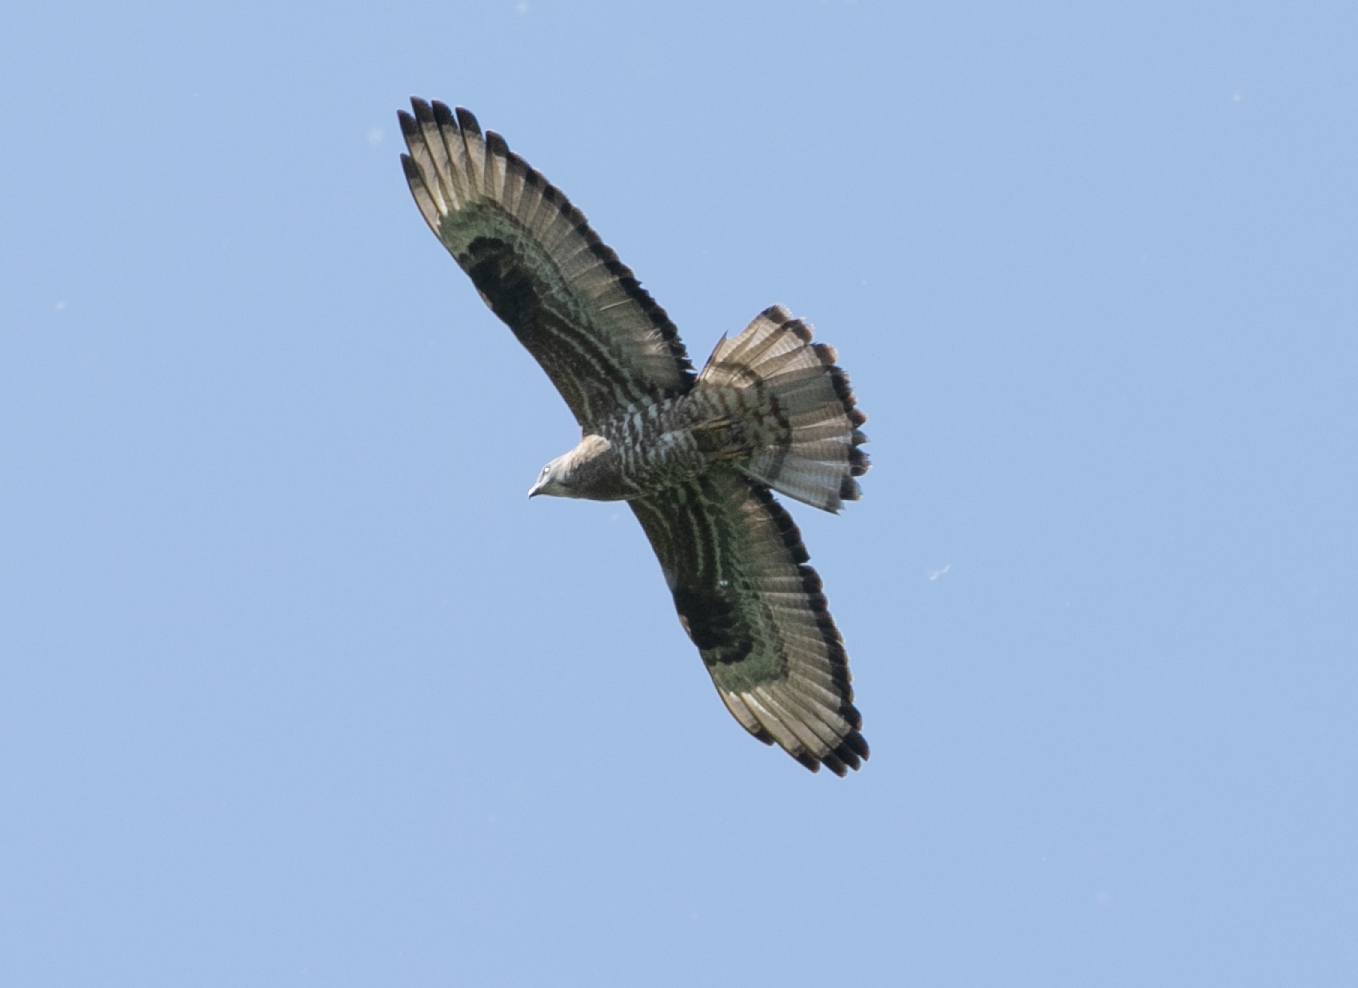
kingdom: Animalia
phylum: Chordata
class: Aves
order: Accipitriformes
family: Accipitridae
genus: Pernis
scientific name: Pernis apivorus
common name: European honey buzzard
